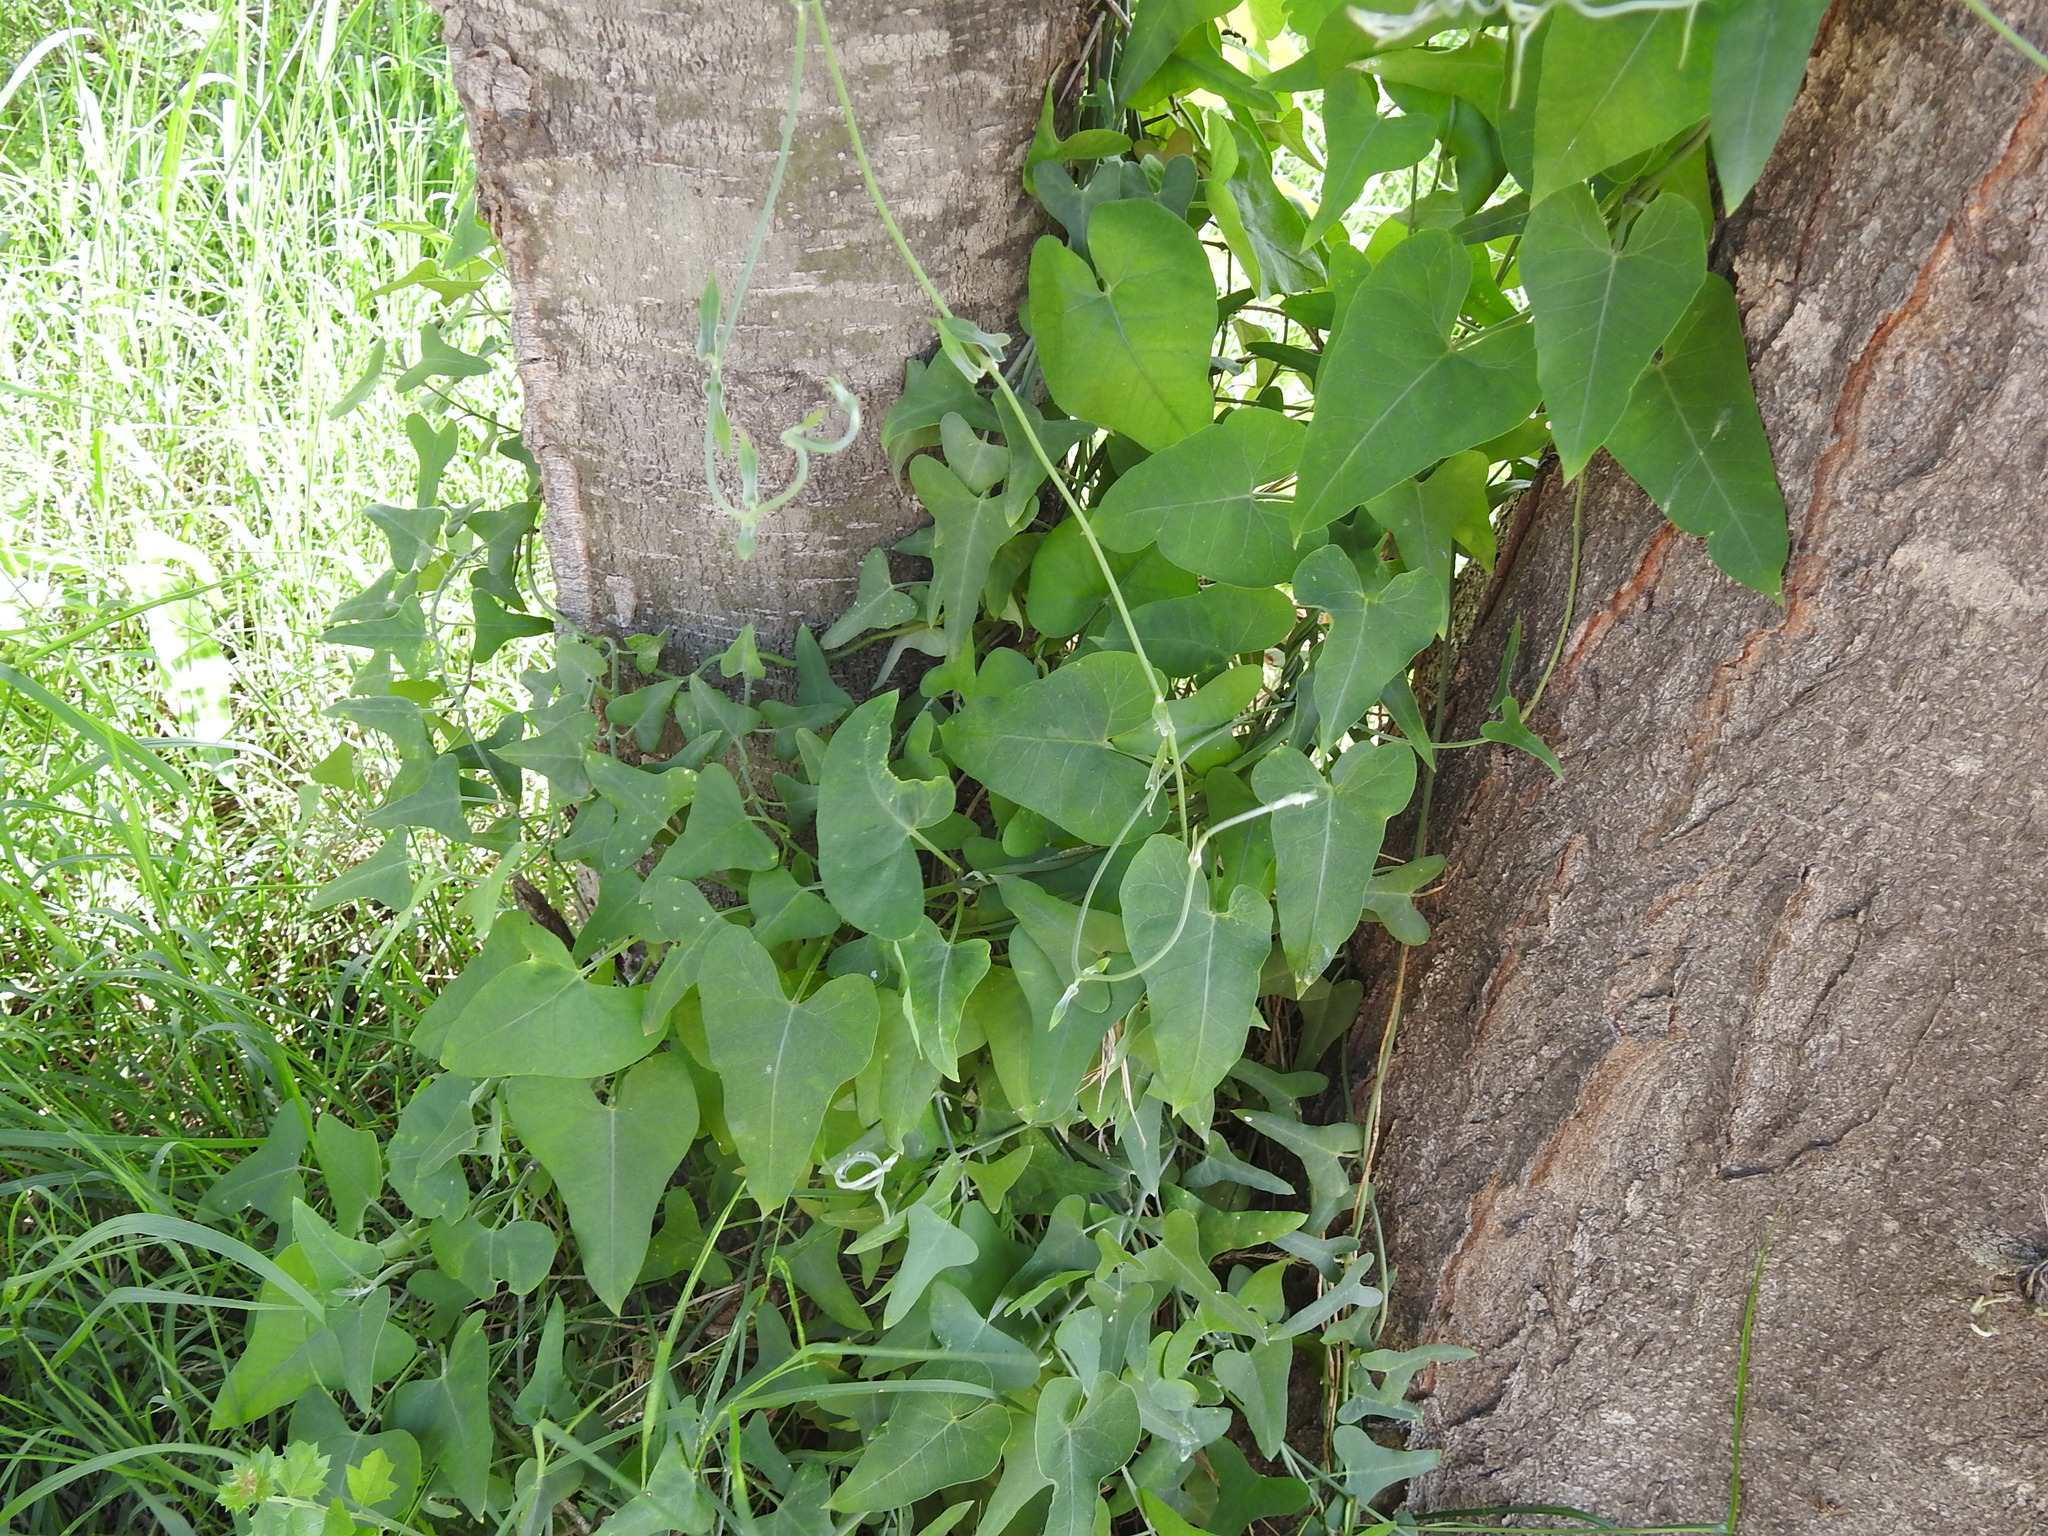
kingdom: Plantae
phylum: Tracheophyta
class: Magnoliopsida
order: Gentianales
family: Apocynaceae
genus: Araujia
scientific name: Araujia odorata
